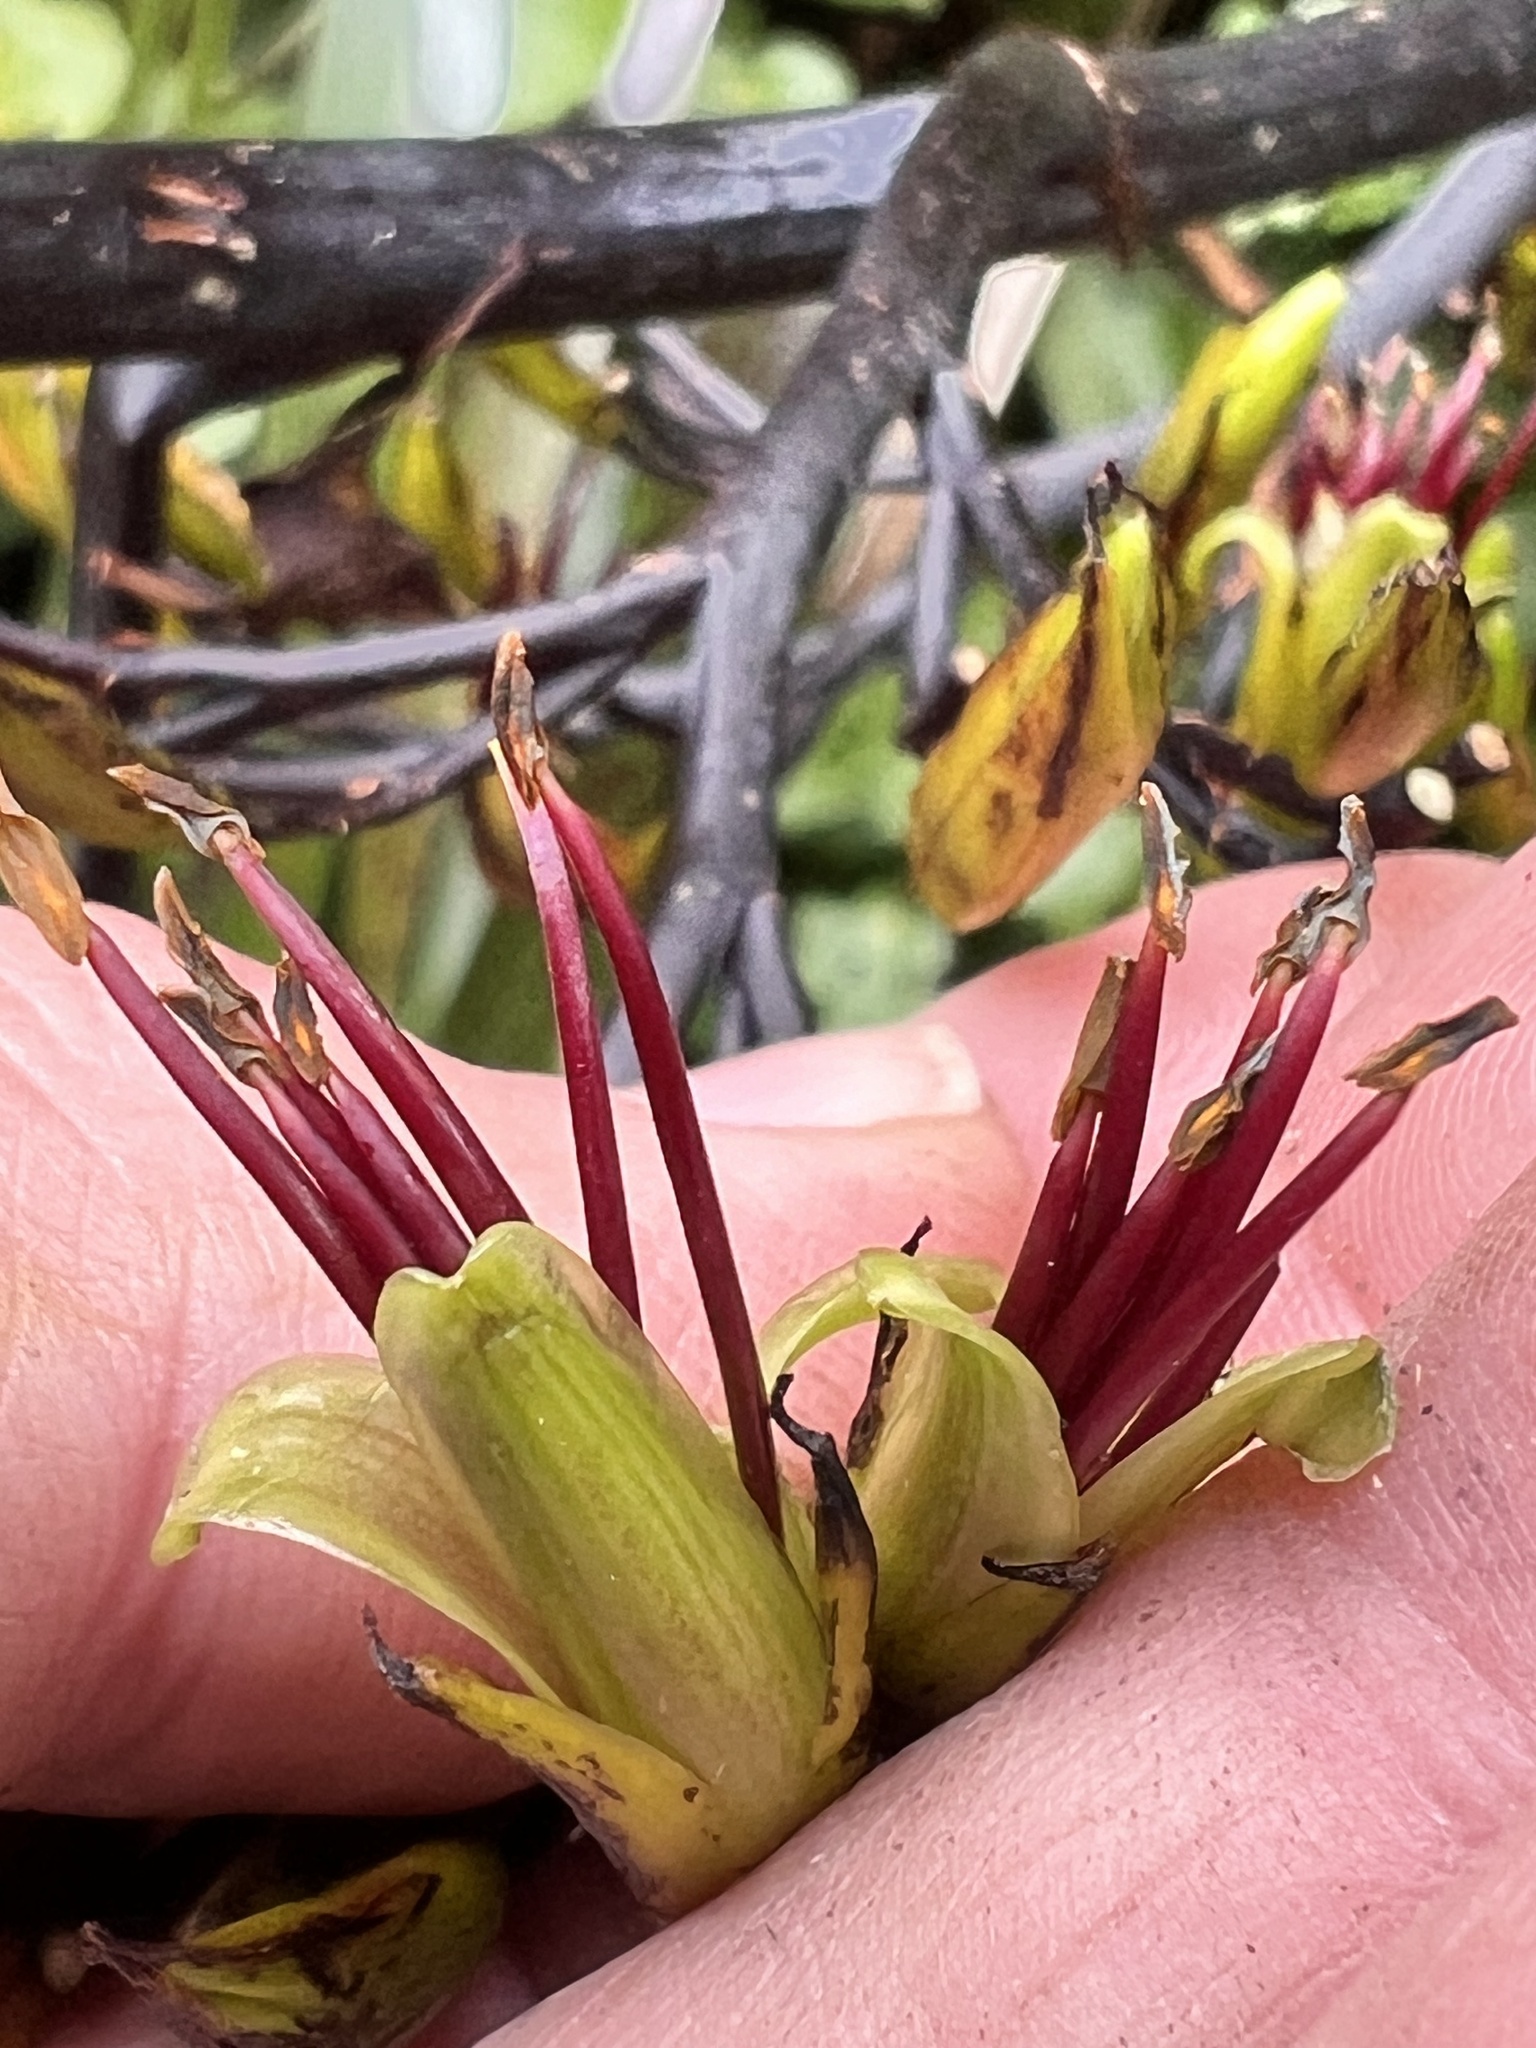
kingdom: Plantae
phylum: Tracheophyta
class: Liliopsida
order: Asparagales
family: Asphodelaceae
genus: Phormium
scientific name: Phormium colensoi
